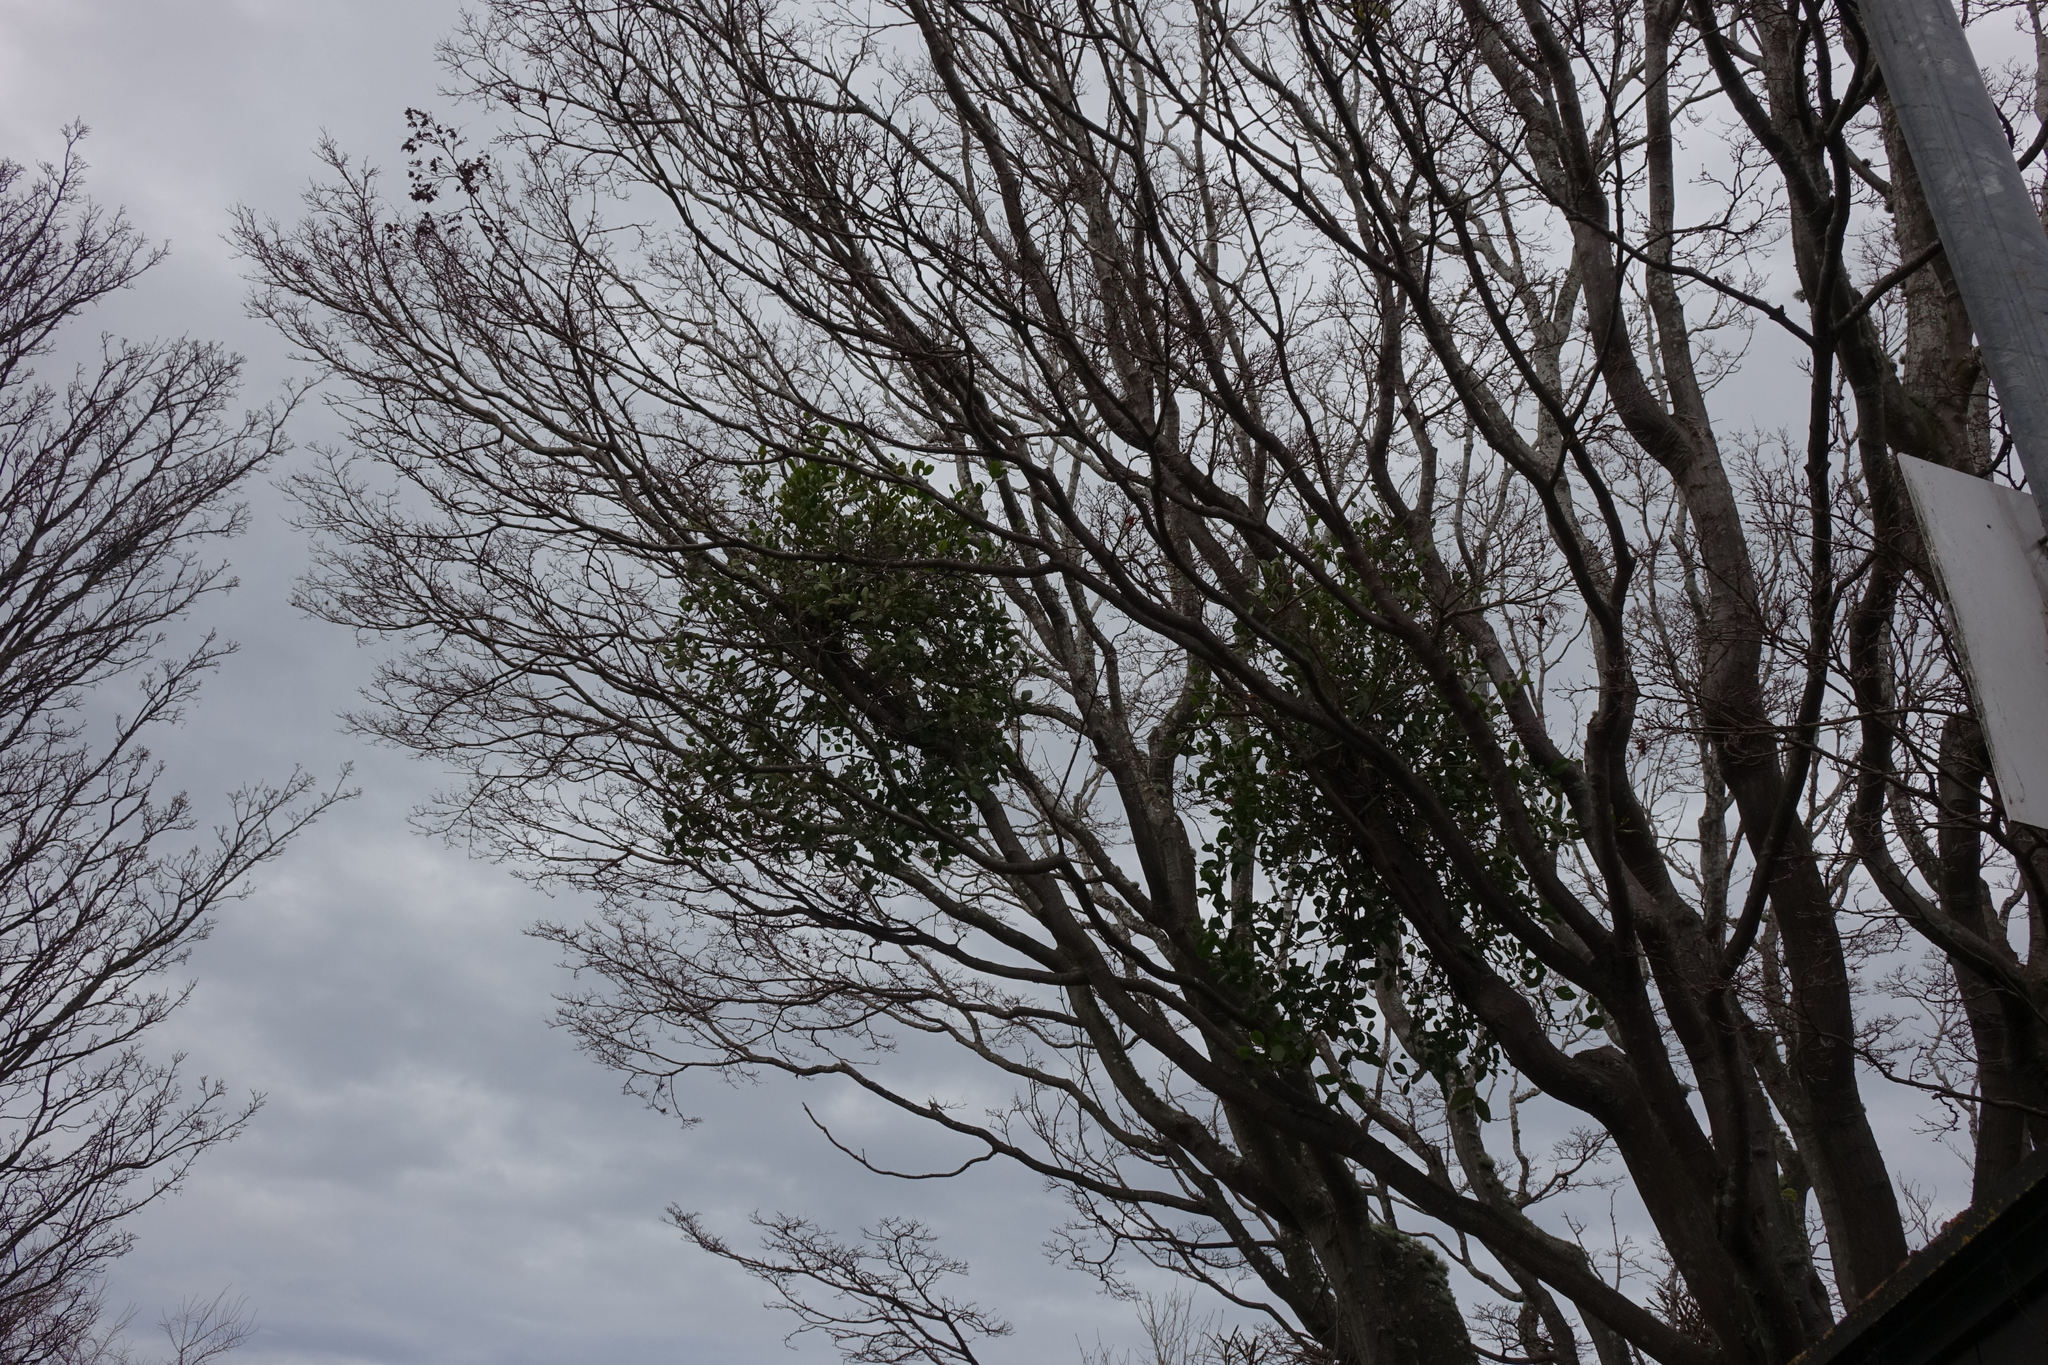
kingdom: Plantae
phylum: Tracheophyta
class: Magnoliopsida
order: Santalales
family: Loranthaceae
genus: Ileostylus
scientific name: Ileostylus micranthus
